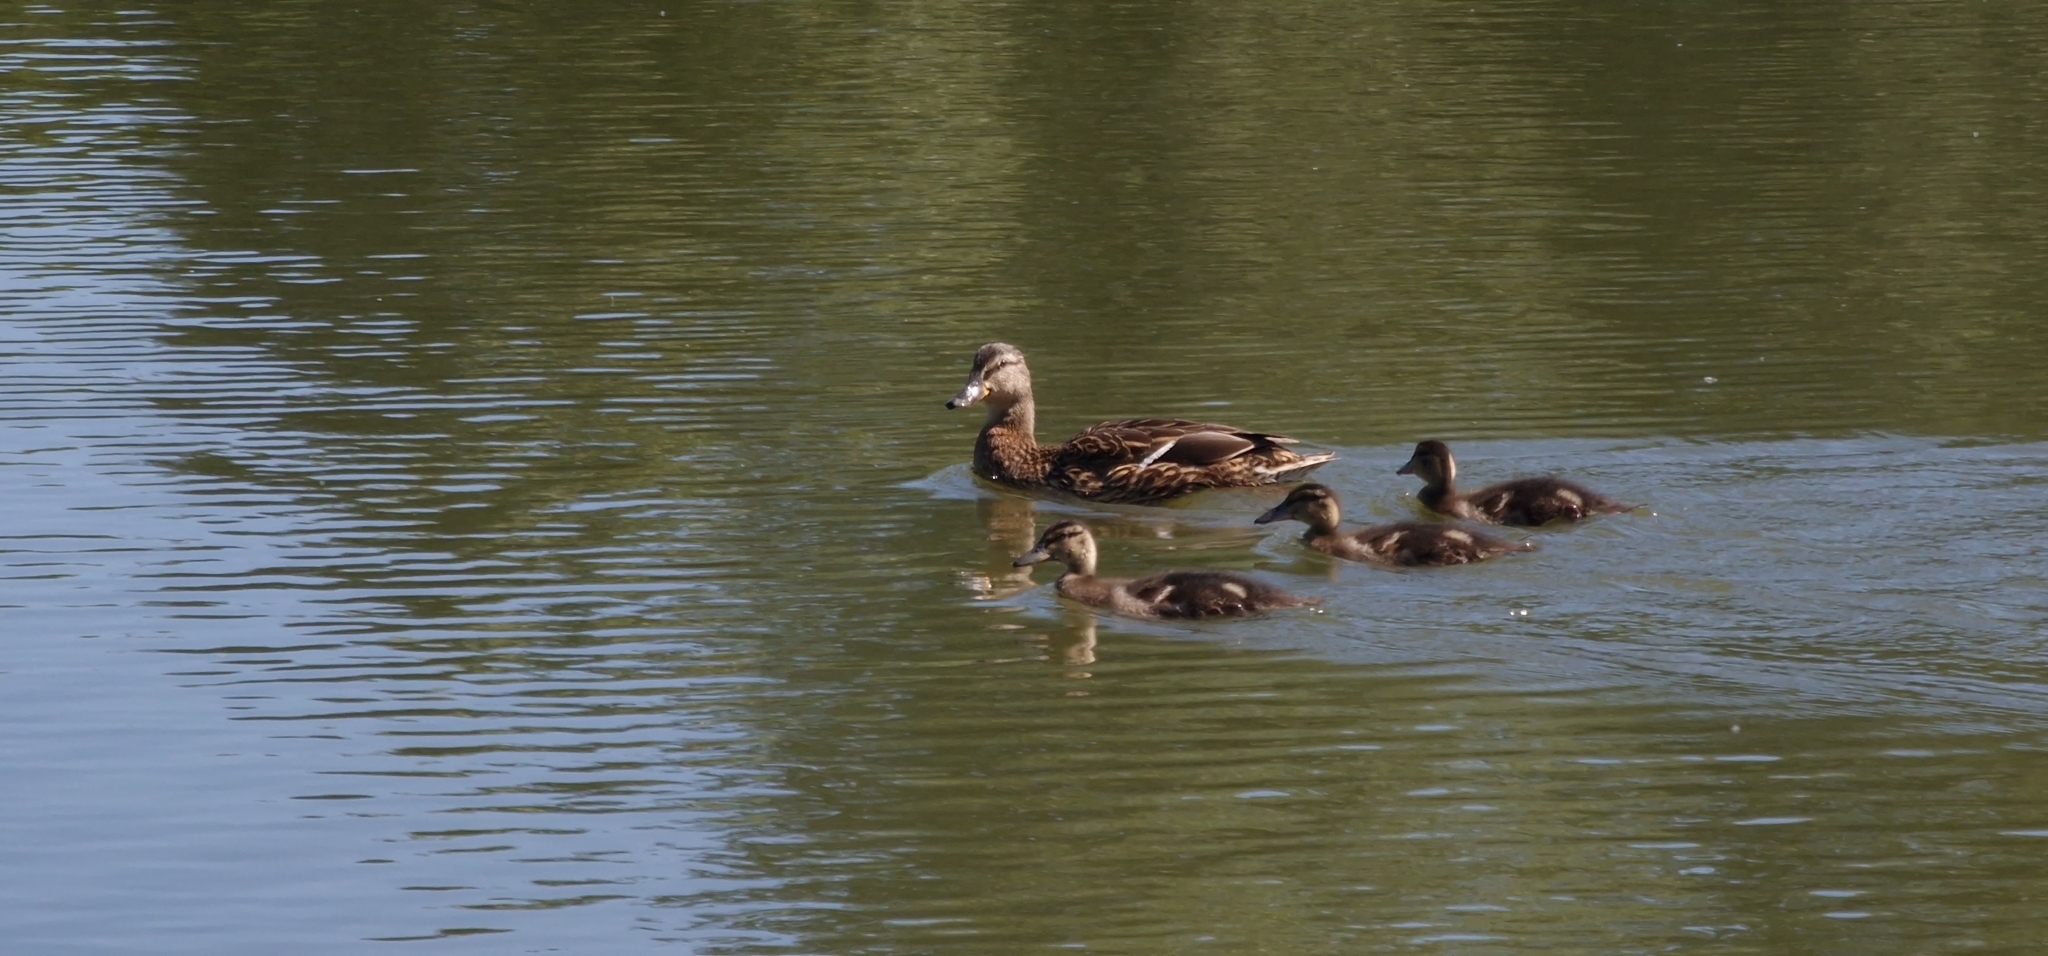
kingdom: Animalia
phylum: Chordata
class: Aves
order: Anseriformes
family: Anatidae
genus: Anas
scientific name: Anas platyrhynchos
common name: Mallard
